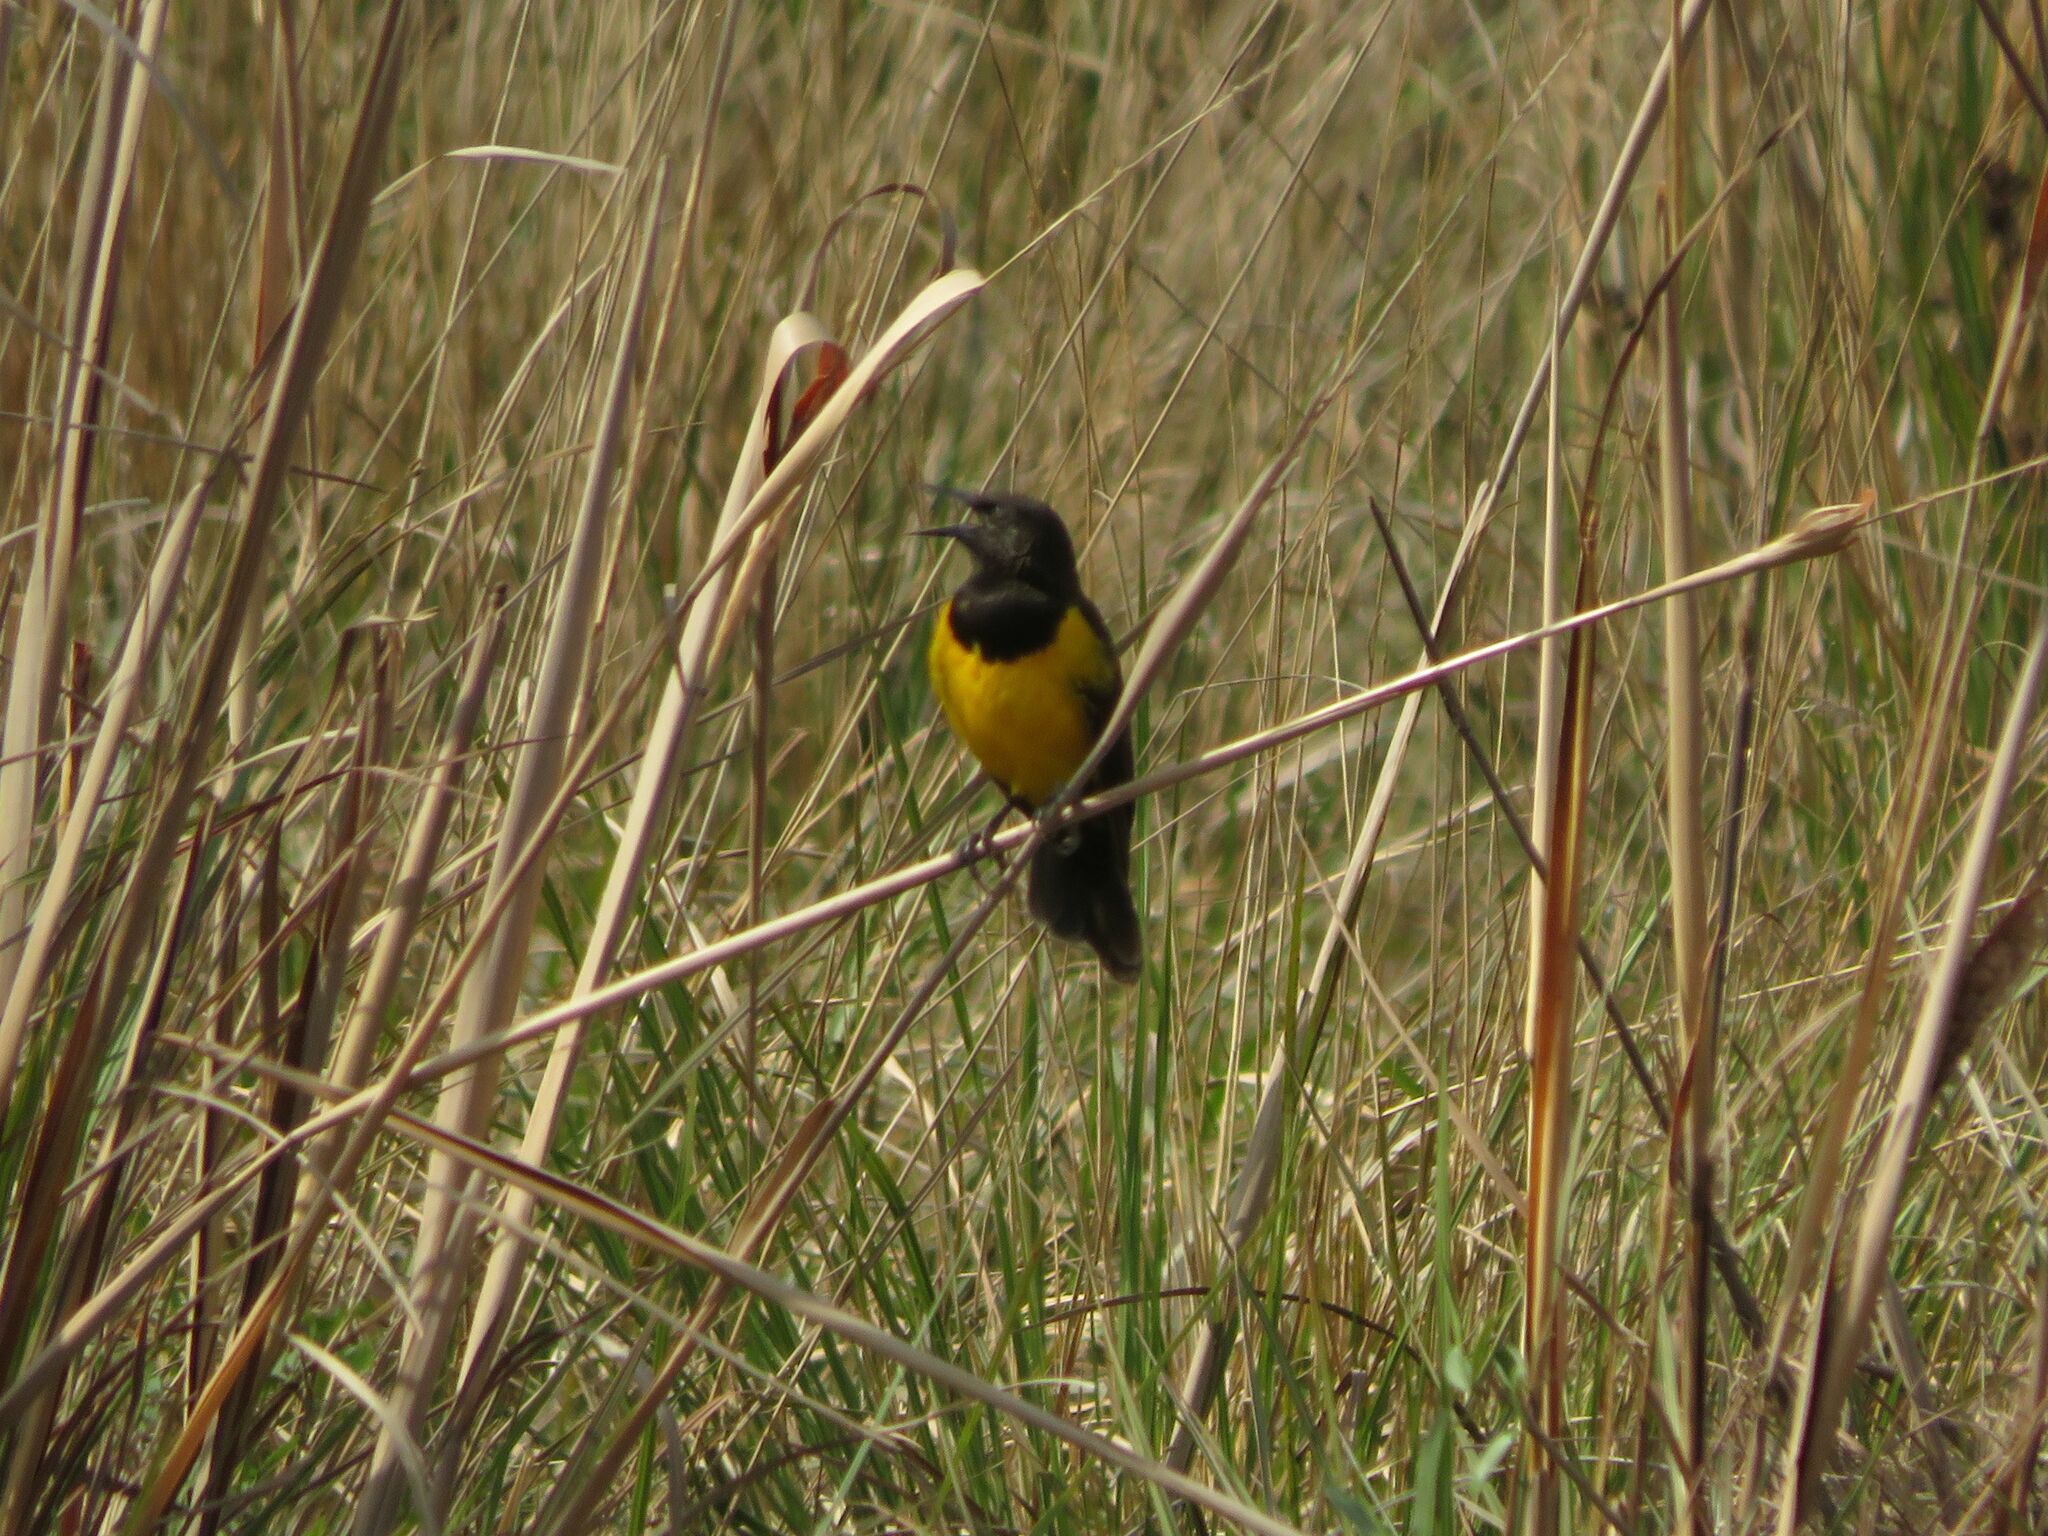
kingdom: Animalia
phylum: Chordata
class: Aves
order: Passeriformes
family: Icteridae
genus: Pseudoleistes
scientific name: Pseudoleistes guirahuro
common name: Yellow-rumped marshbird
